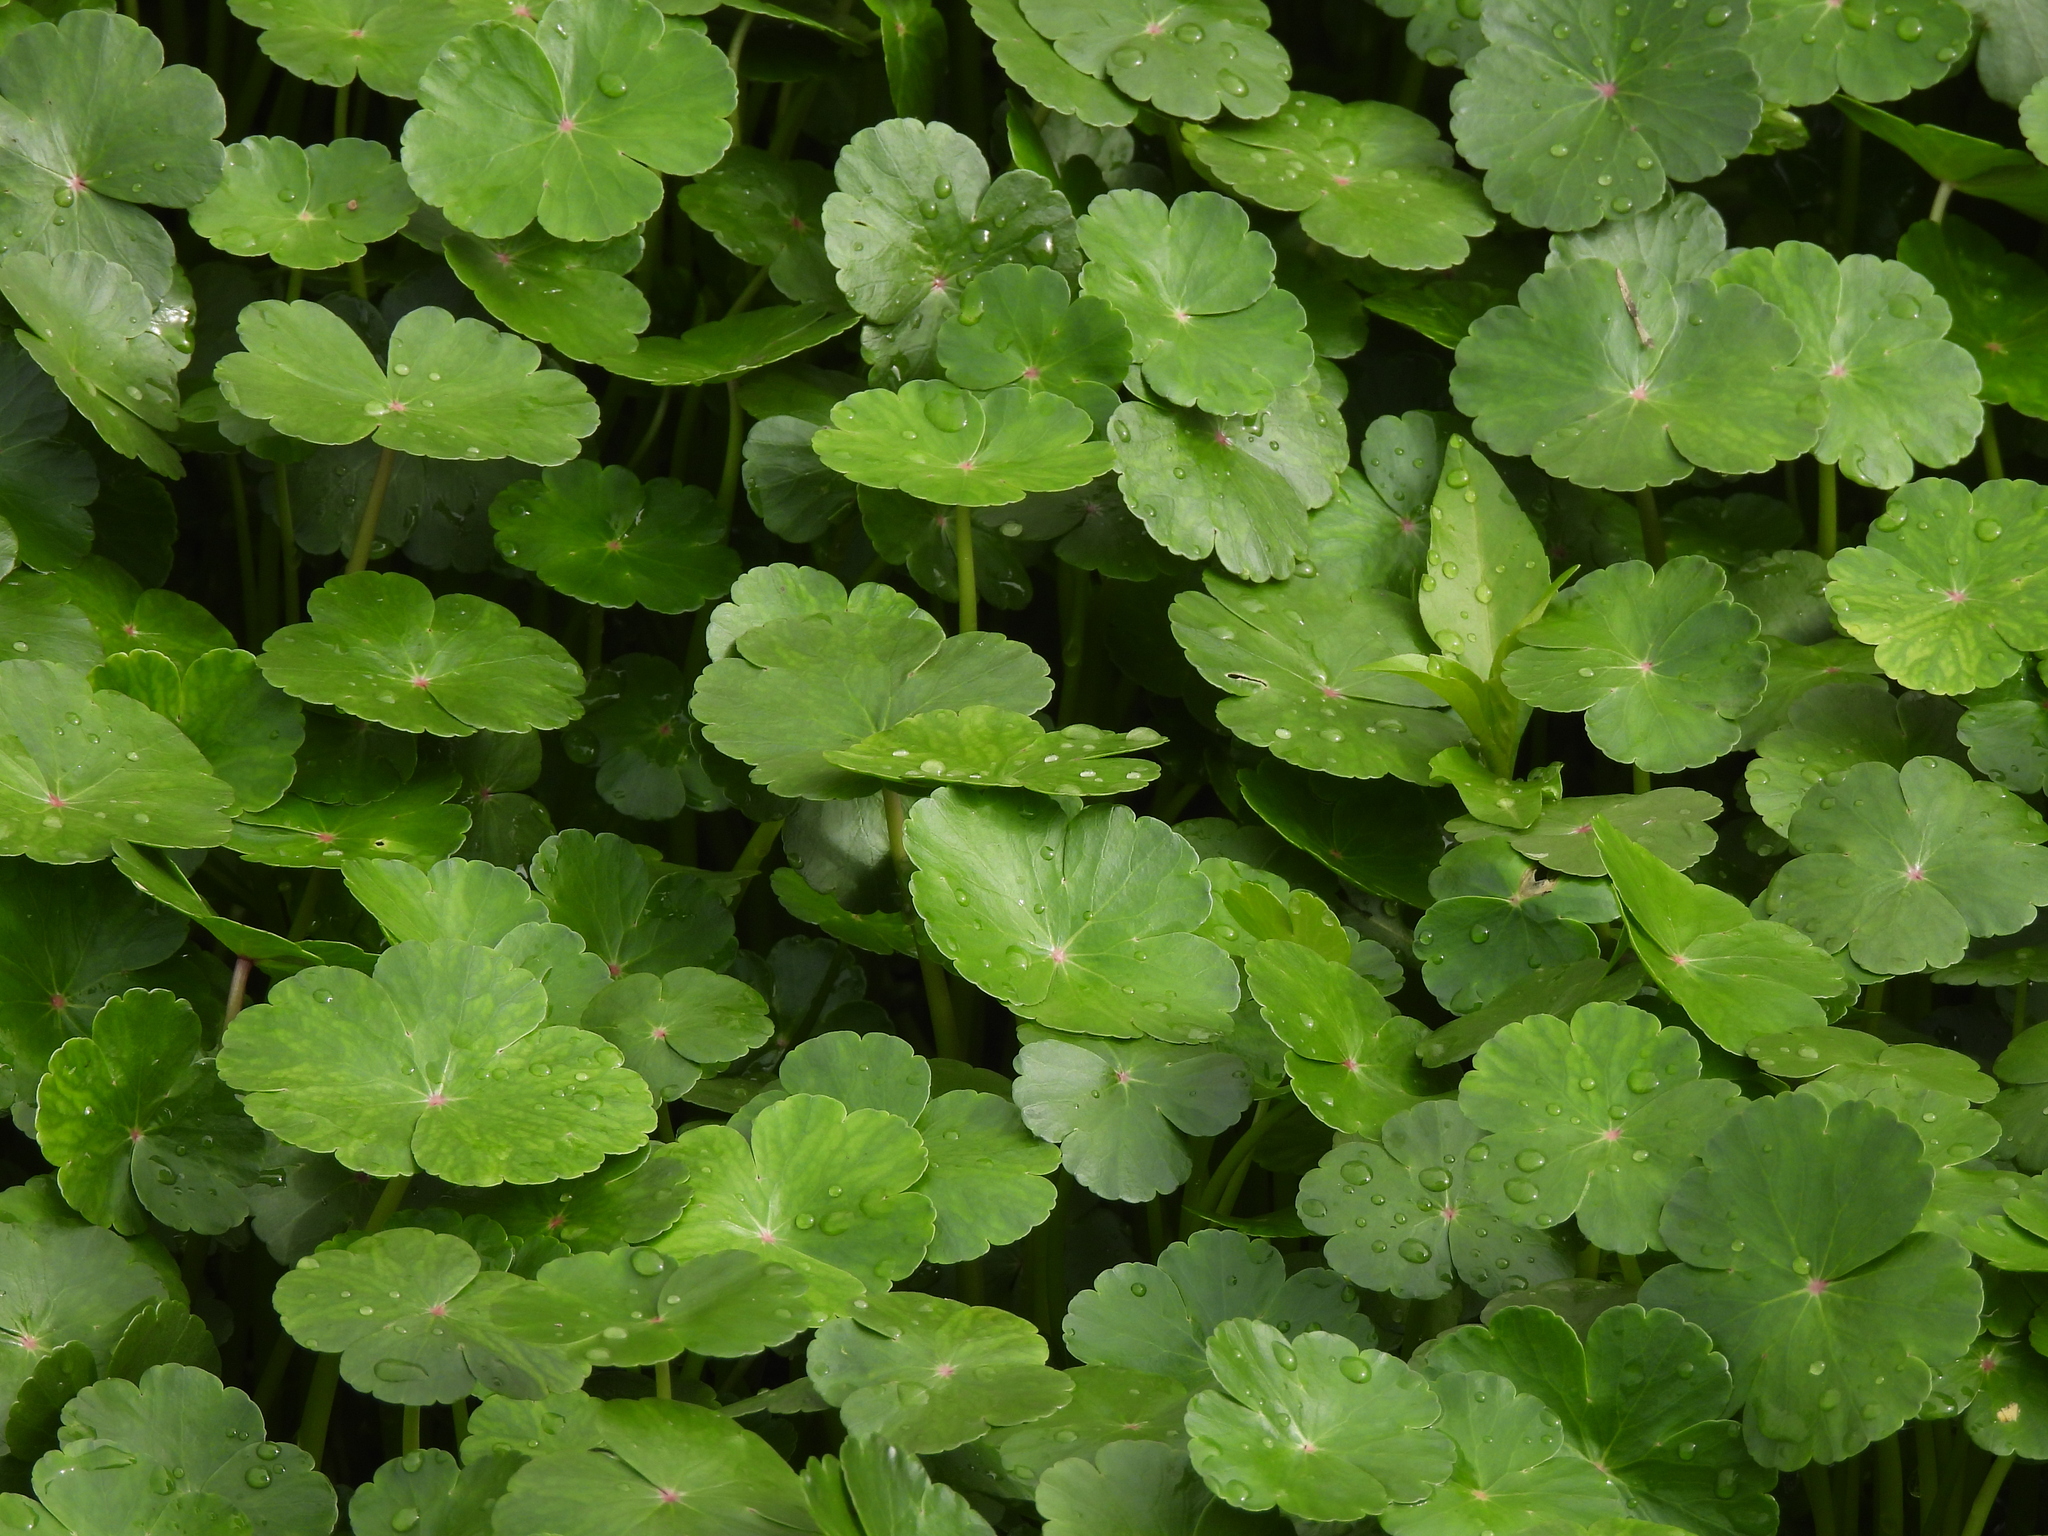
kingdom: Plantae
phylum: Tracheophyta
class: Magnoliopsida
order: Apiales
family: Araliaceae
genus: Hydrocotyle
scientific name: Hydrocotyle ranunculoides
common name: Floating pennywort
